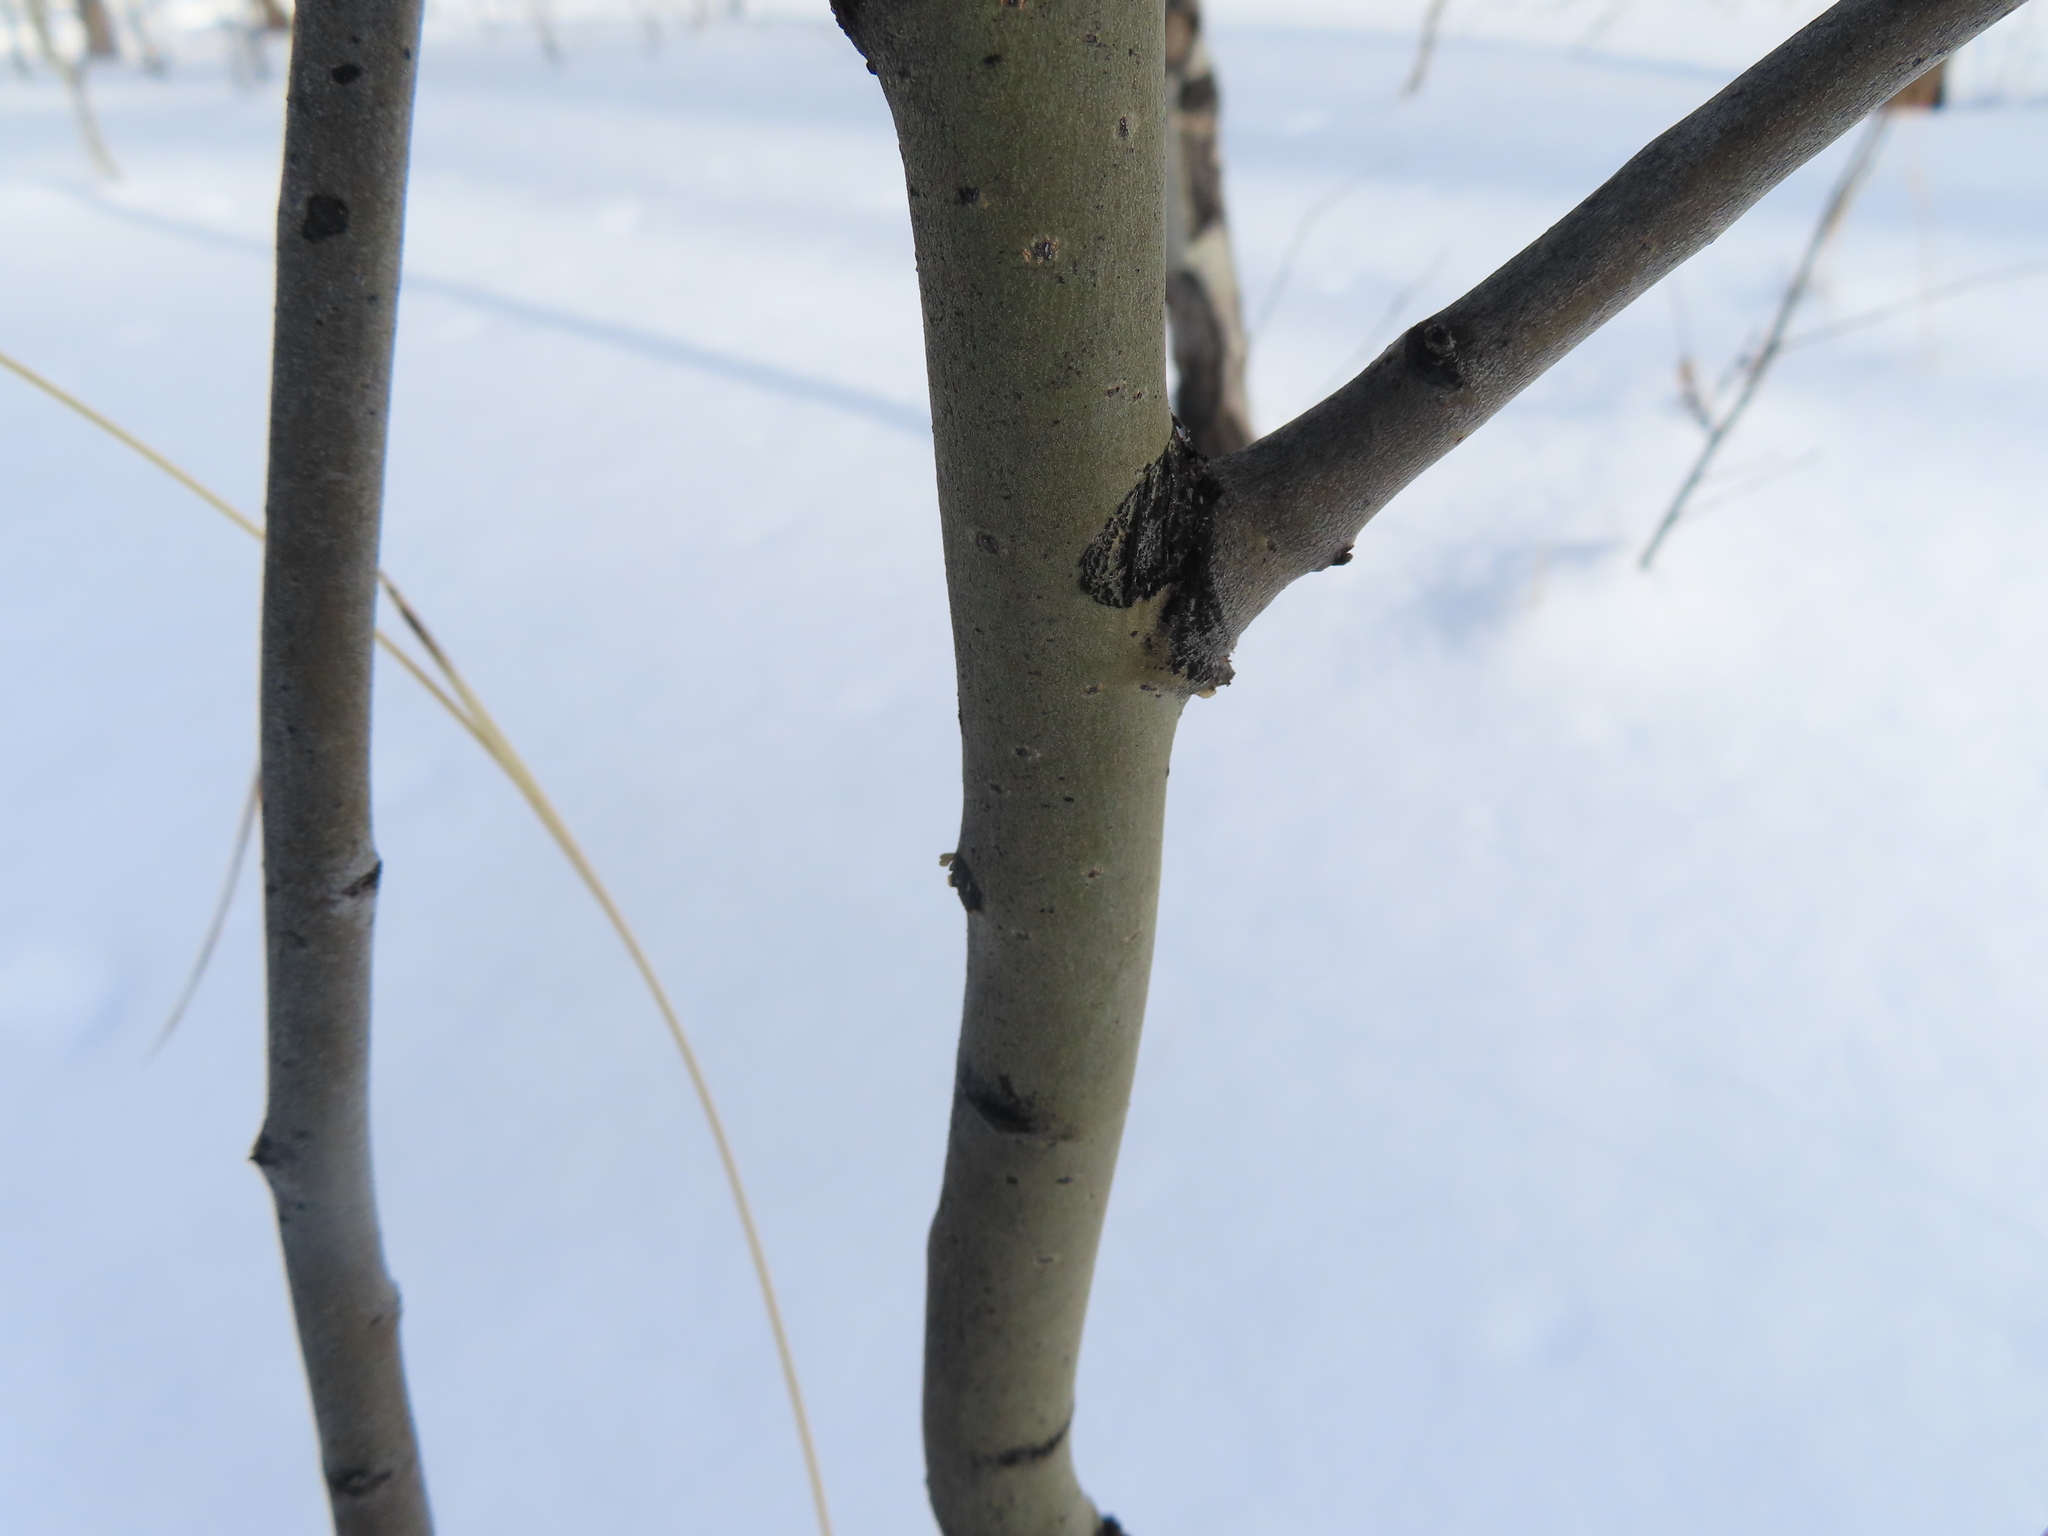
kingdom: Plantae
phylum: Tracheophyta
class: Magnoliopsida
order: Malpighiales
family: Salicaceae
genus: Populus
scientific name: Populus tremuloides
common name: Quaking aspen
